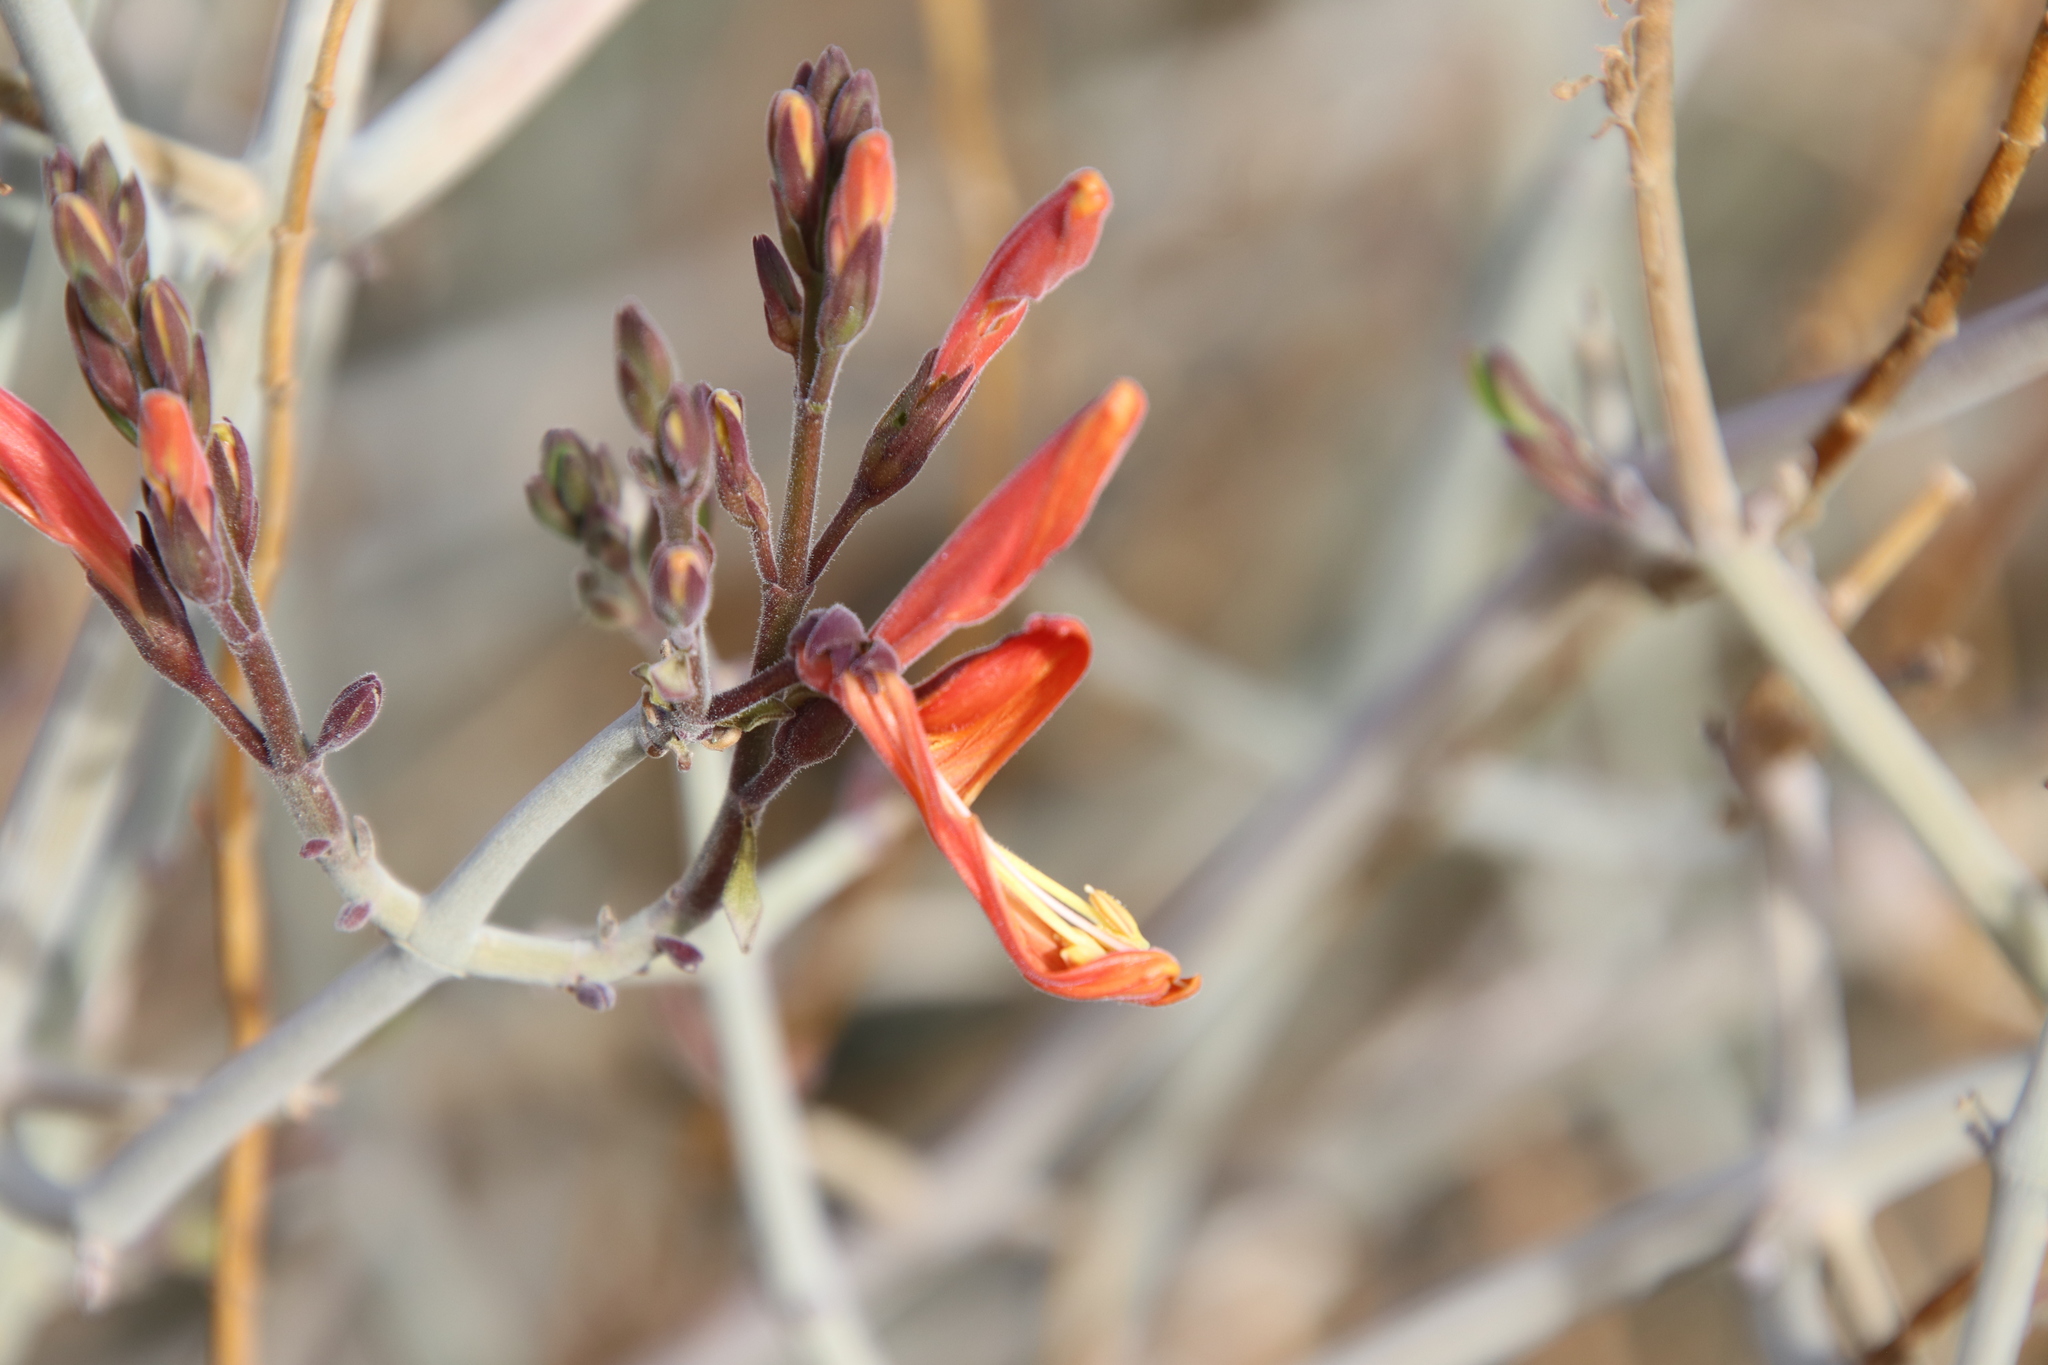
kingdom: Plantae
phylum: Tracheophyta
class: Magnoliopsida
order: Lamiales
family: Acanthaceae
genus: Justicia
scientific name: Justicia californica
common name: Chuparosa-honeysuckle
